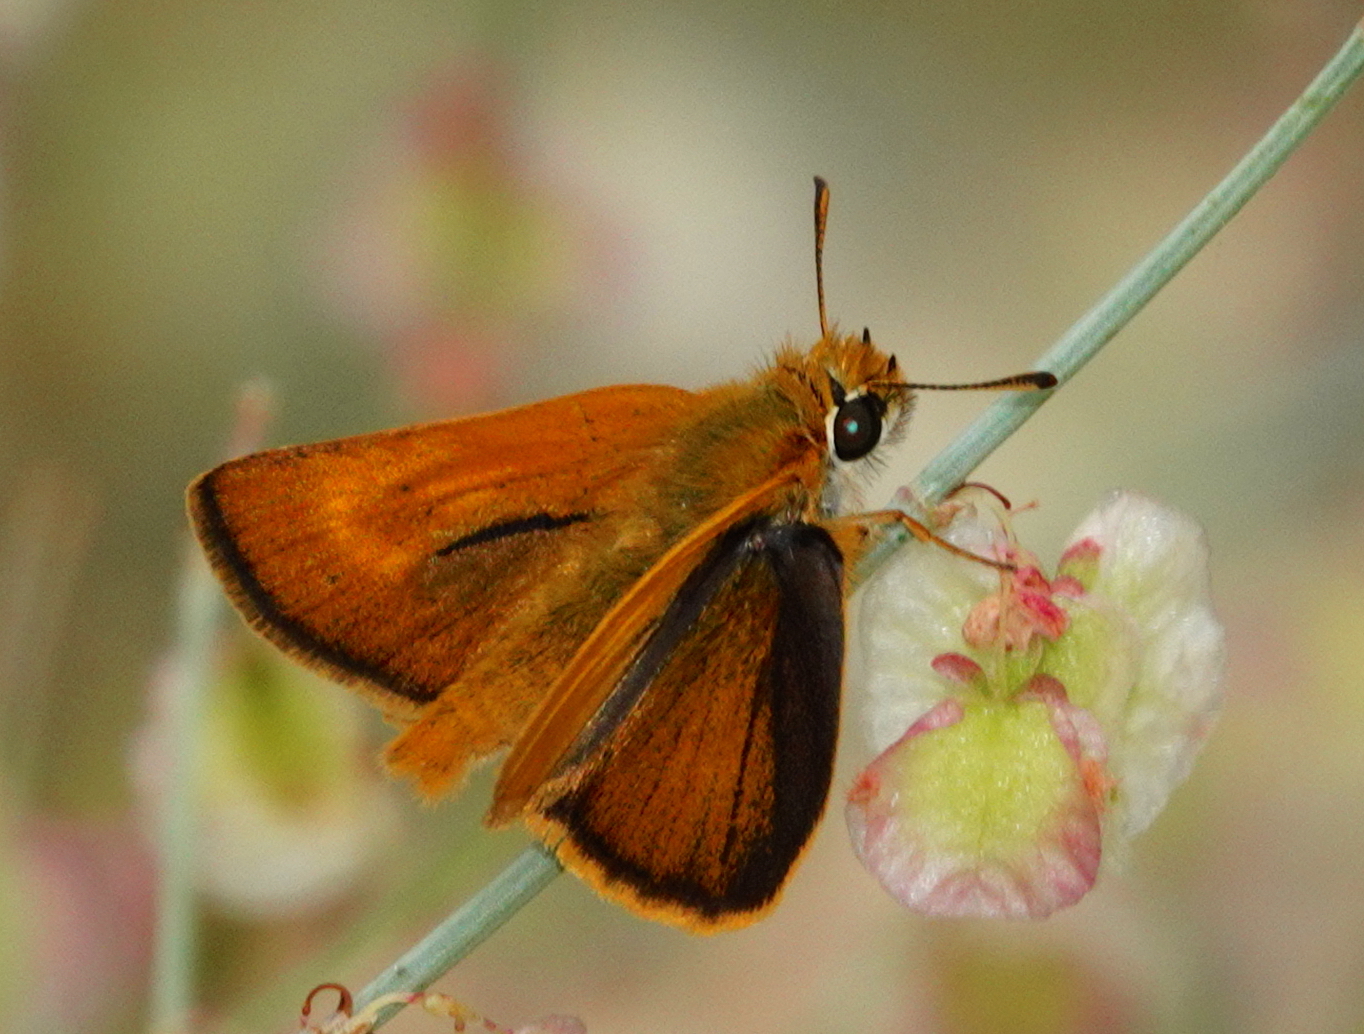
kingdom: Animalia
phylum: Arthropoda
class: Insecta
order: Lepidoptera
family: Hesperiidae
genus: Thymelicus
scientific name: Thymelicus acteon
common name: Lulworth skipper
